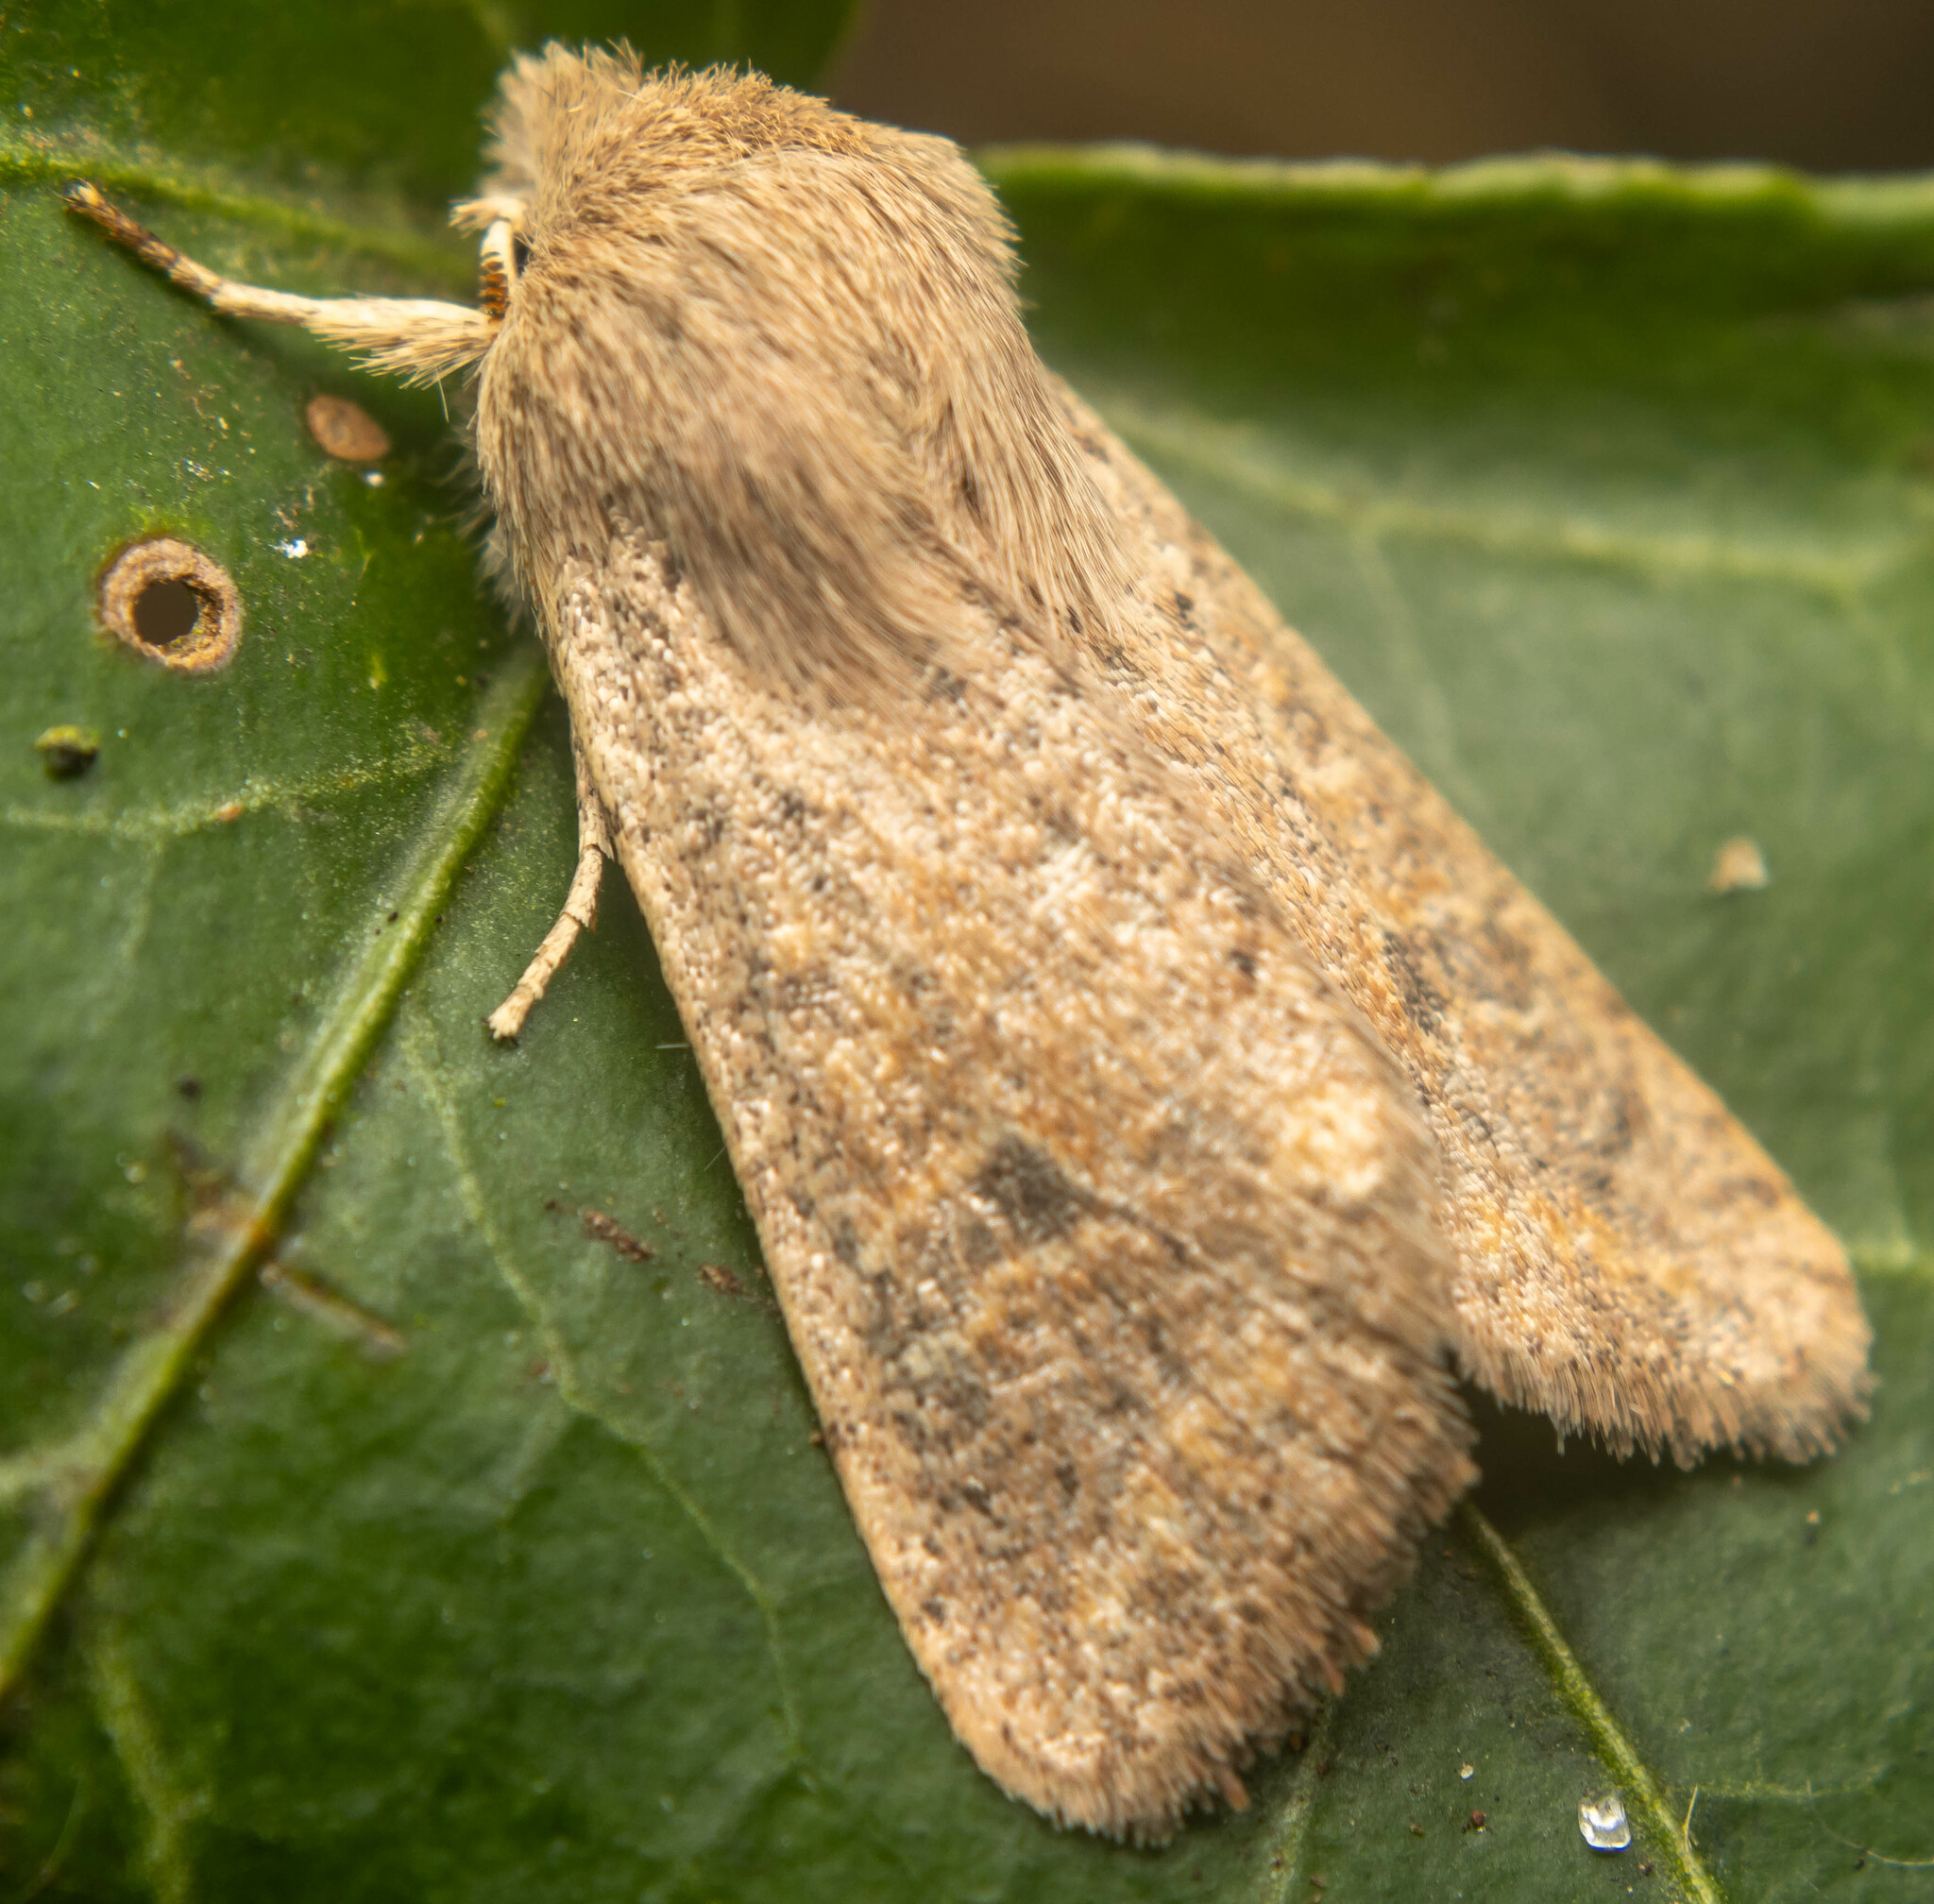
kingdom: Animalia
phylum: Arthropoda
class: Insecta
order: Lepidoptera
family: Noctuidae
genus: Orthosia
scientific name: Orthosia cruda
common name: Small quaker
